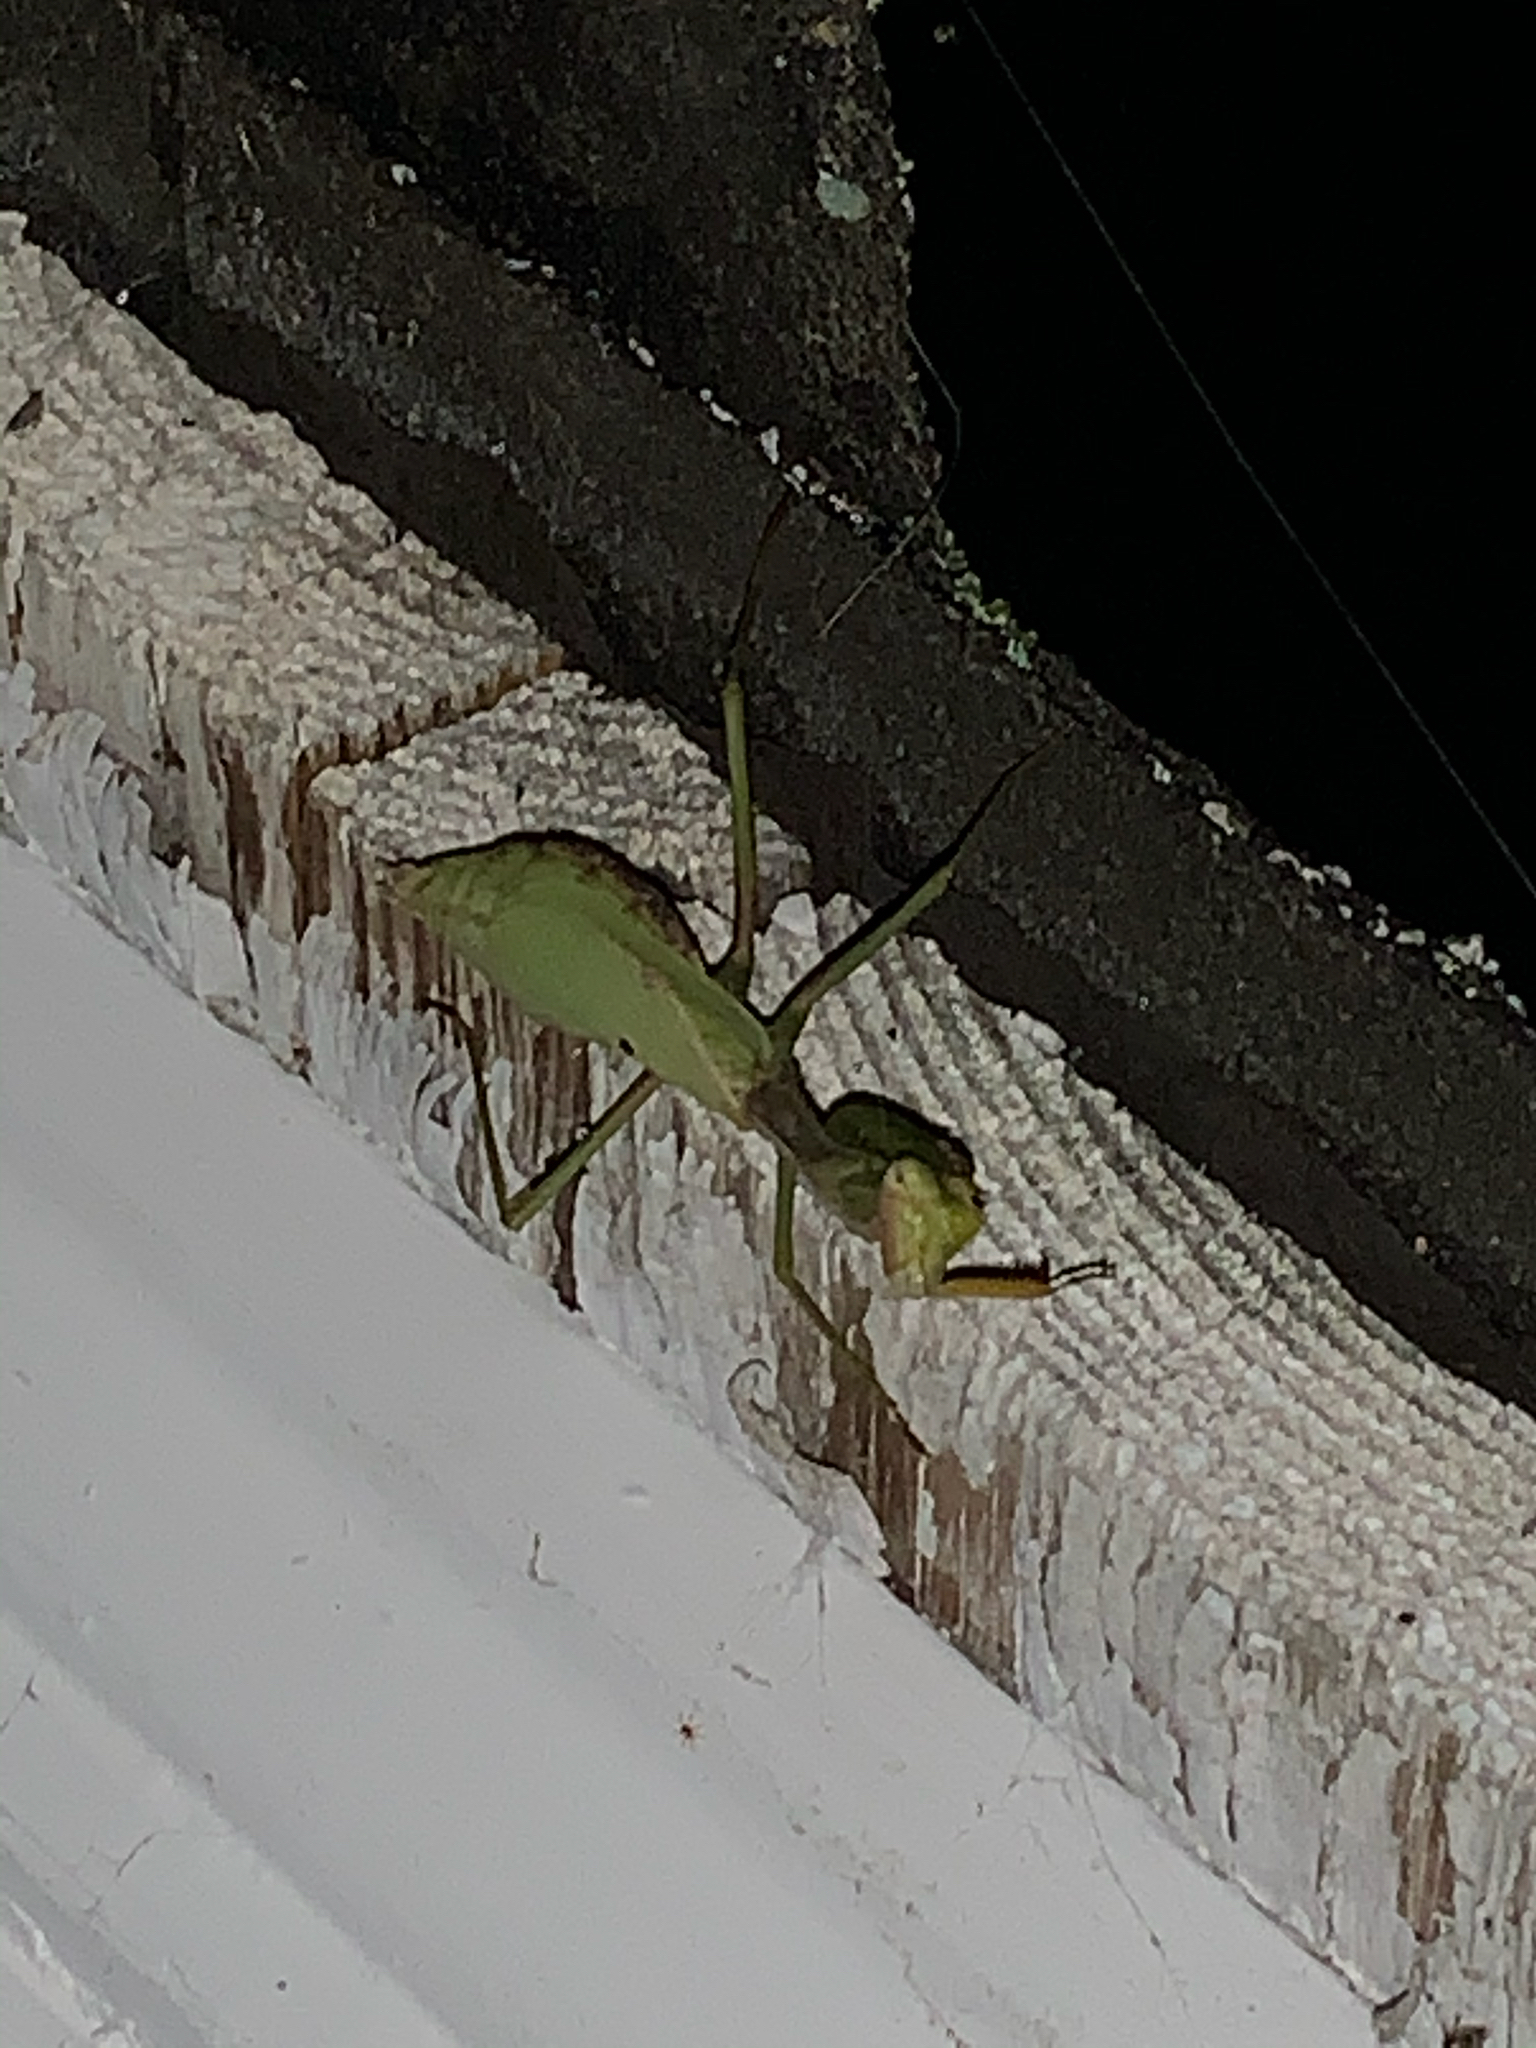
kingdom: Animalia
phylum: Arthropoda
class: Insecta
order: Mantodea
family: Mantidae
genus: Stagmomantis
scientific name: Stagmomantis carolina
